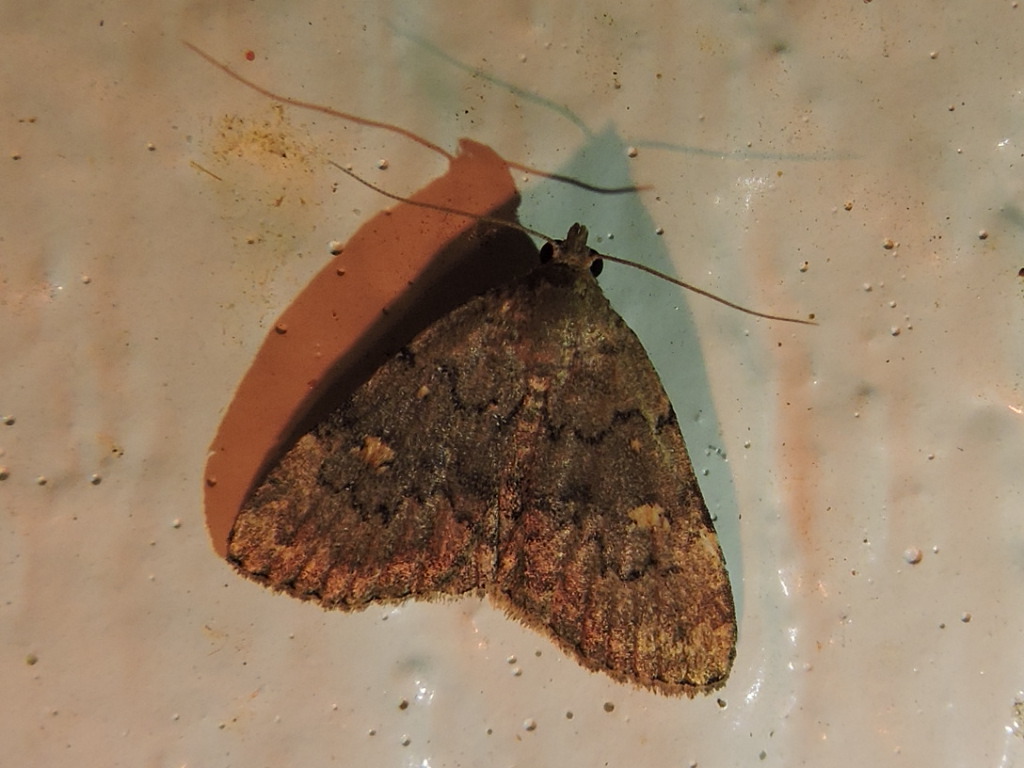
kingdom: Animalia
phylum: Arthropoda
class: Insecta
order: Lepidoptera
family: Erebidae
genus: Idia
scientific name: Idia aemula
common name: Common idia moth
